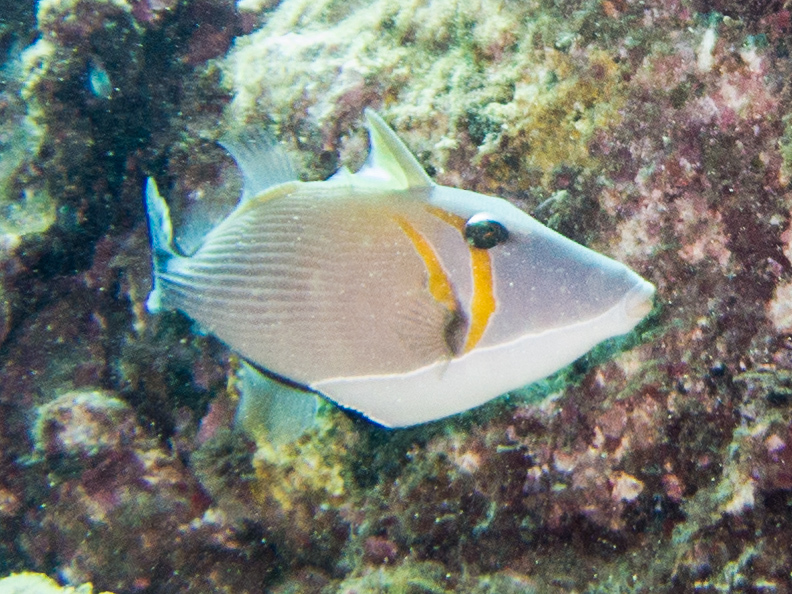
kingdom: Animalia
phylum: Chordata
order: Tetraodontiformes
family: Balistidae
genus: Sufflamen
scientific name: Sufflamen bursa
